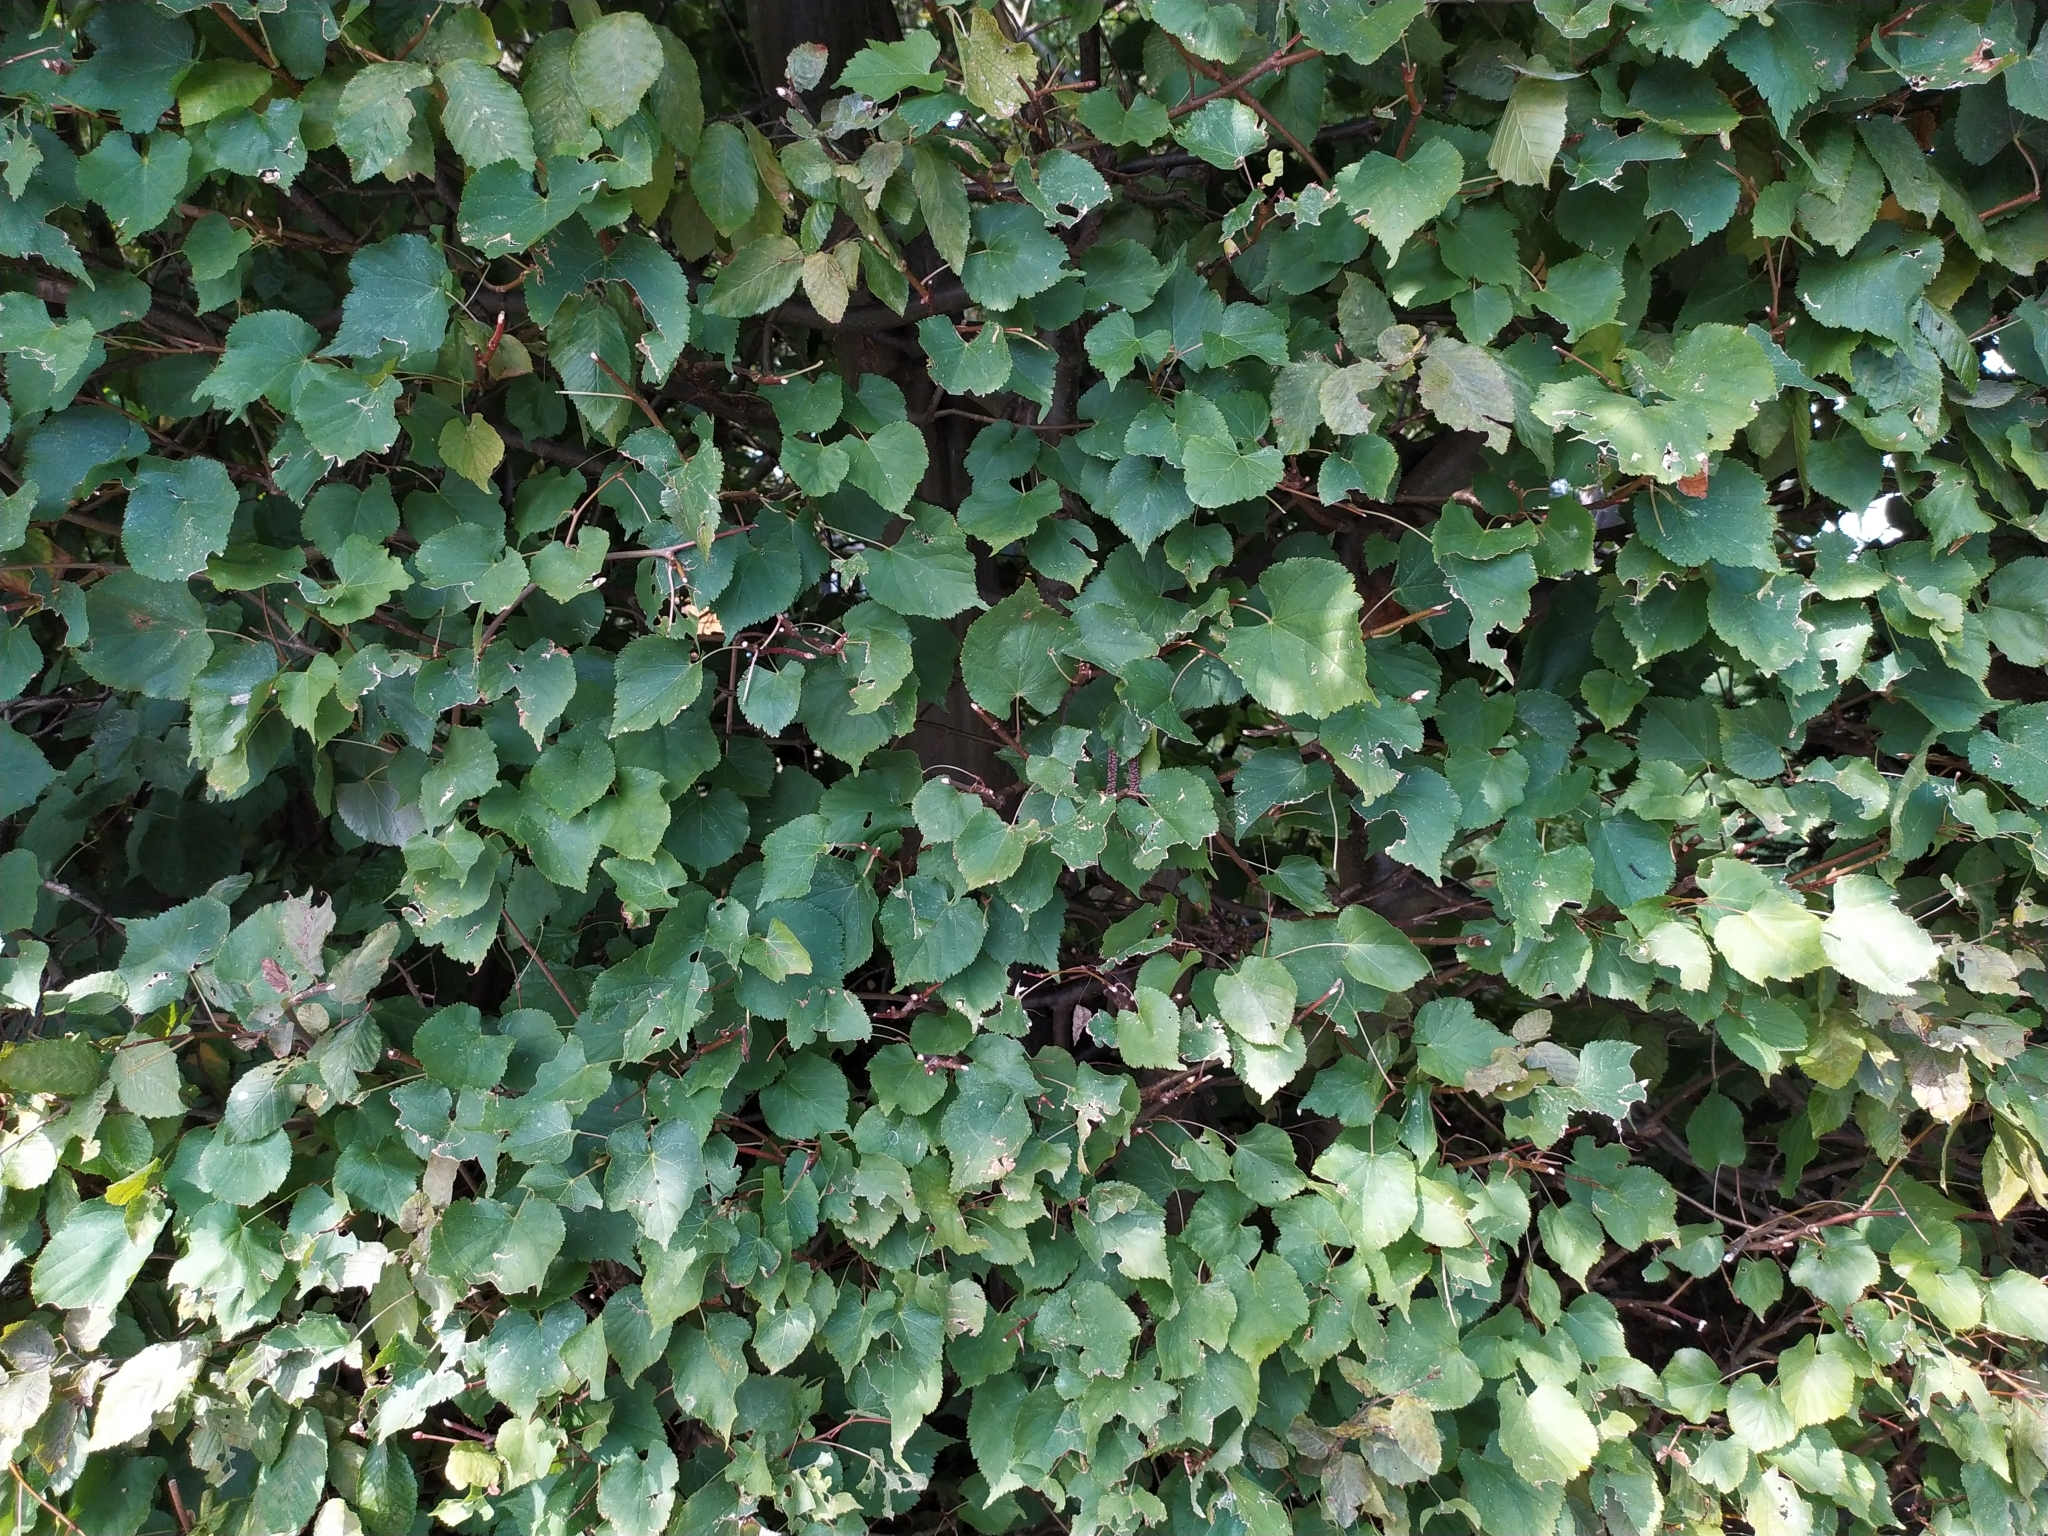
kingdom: Plantae
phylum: Tracheophyta
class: Magnoliopsida
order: Malvales
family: Malvaceae
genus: Tilia
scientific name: Tilia cordata
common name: Small-leaved lime
